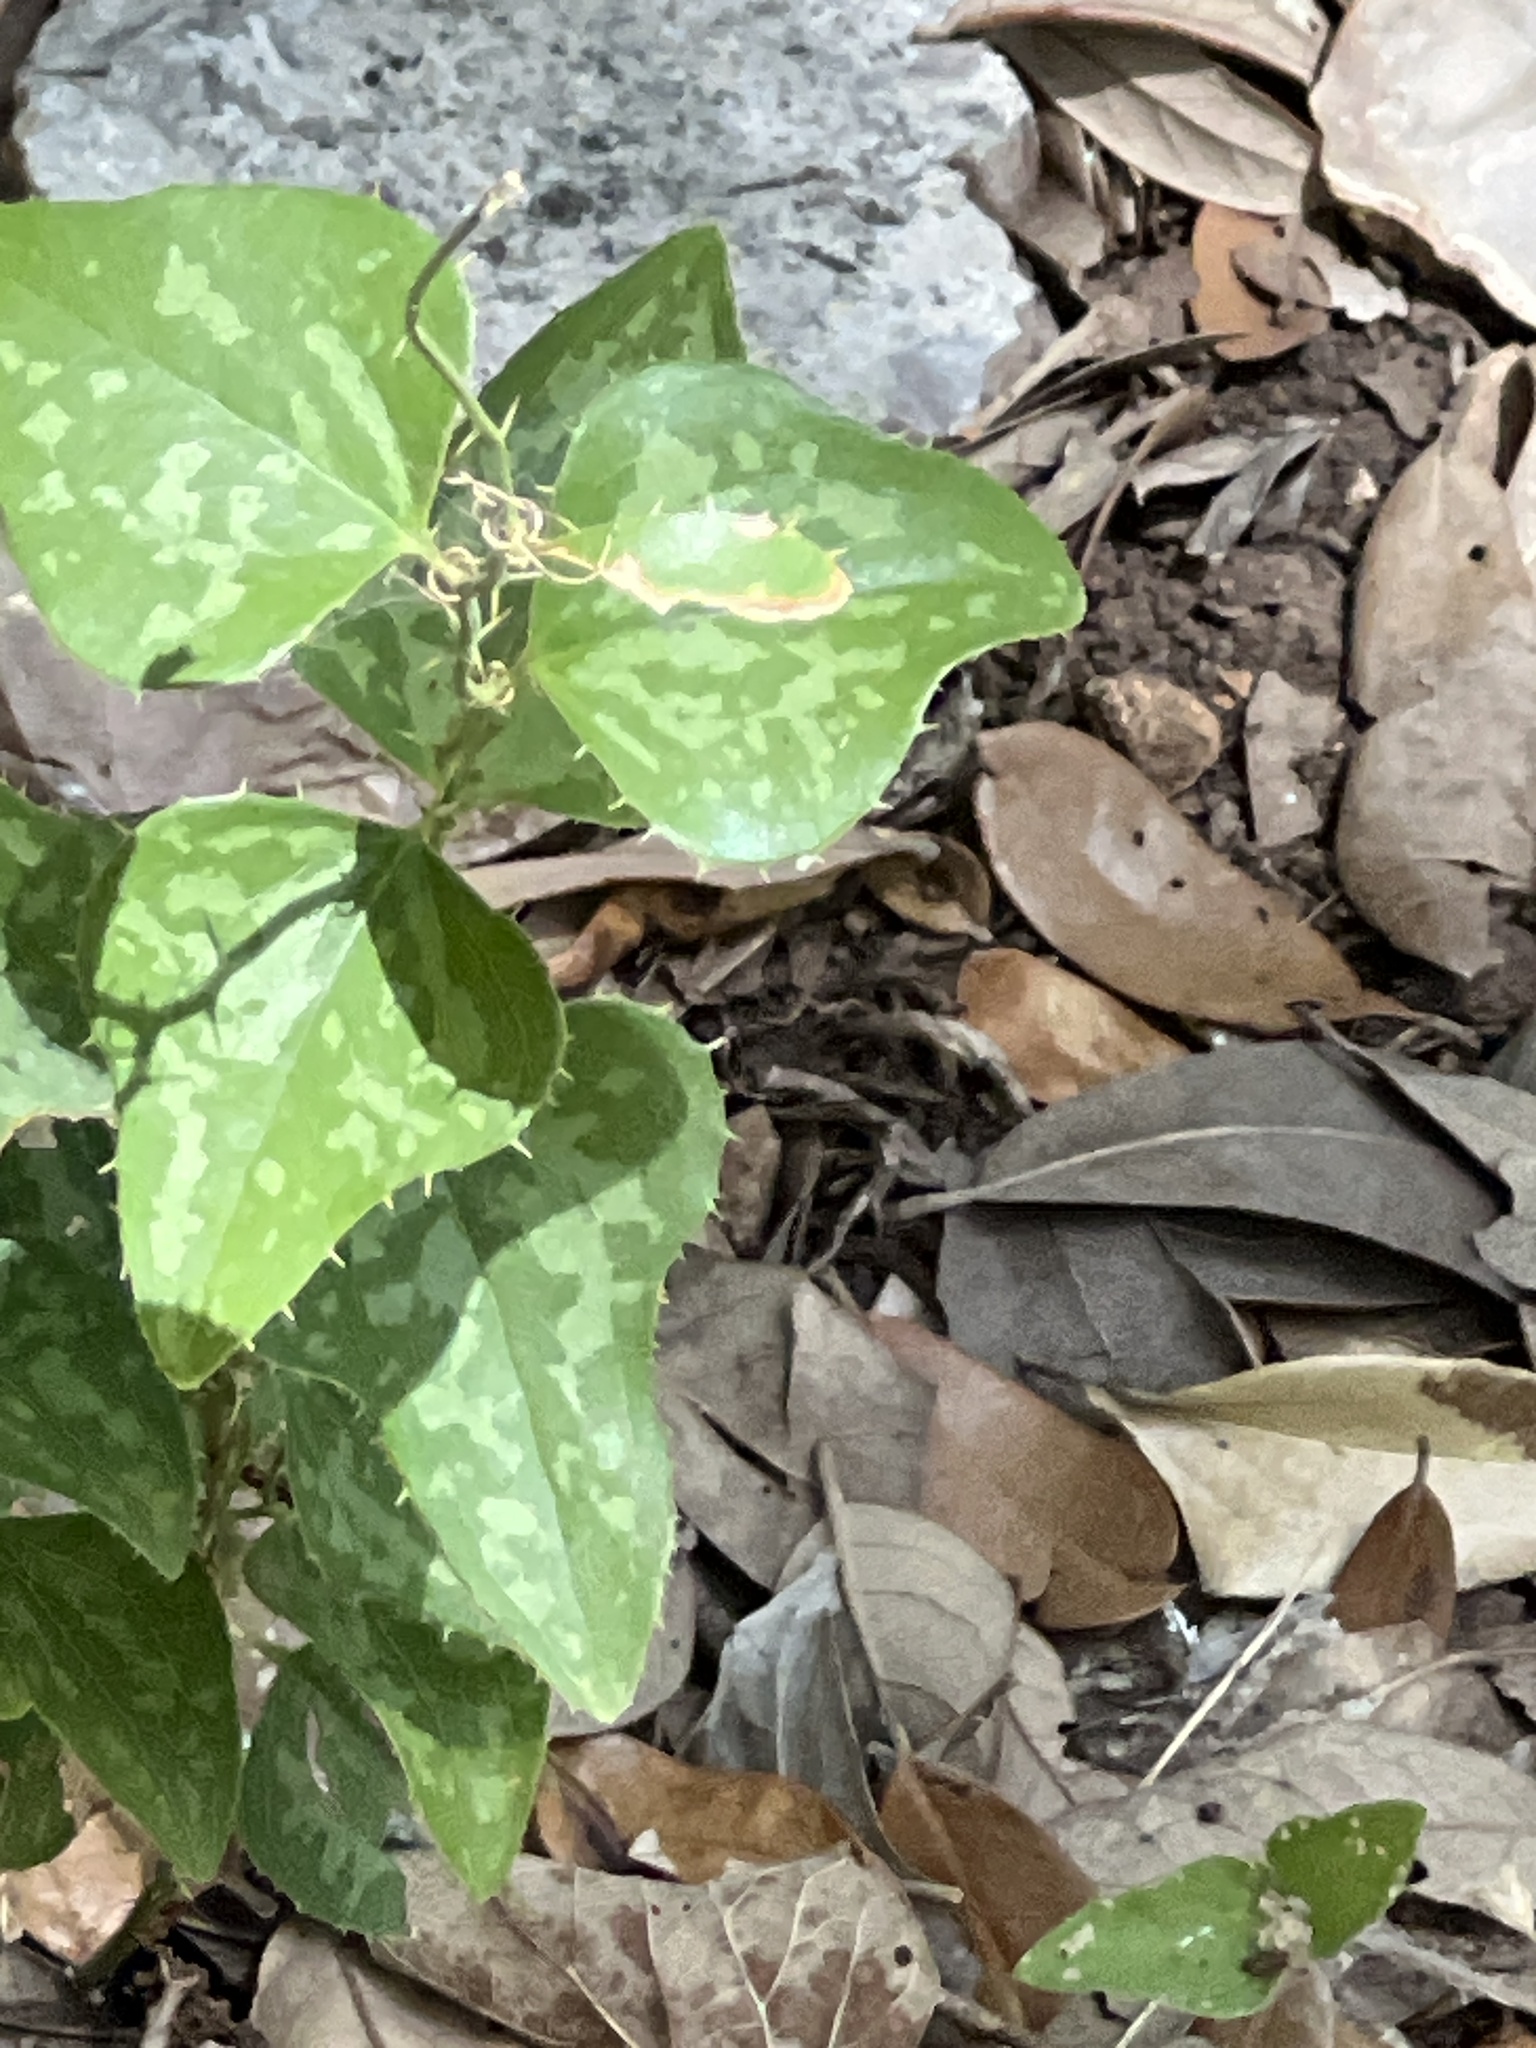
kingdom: Plantae
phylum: Tracheophyta
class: Liliopsida
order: Liliales
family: Smilacaceae
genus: Smilax
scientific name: Smilax bona-nox
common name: Catbrier
